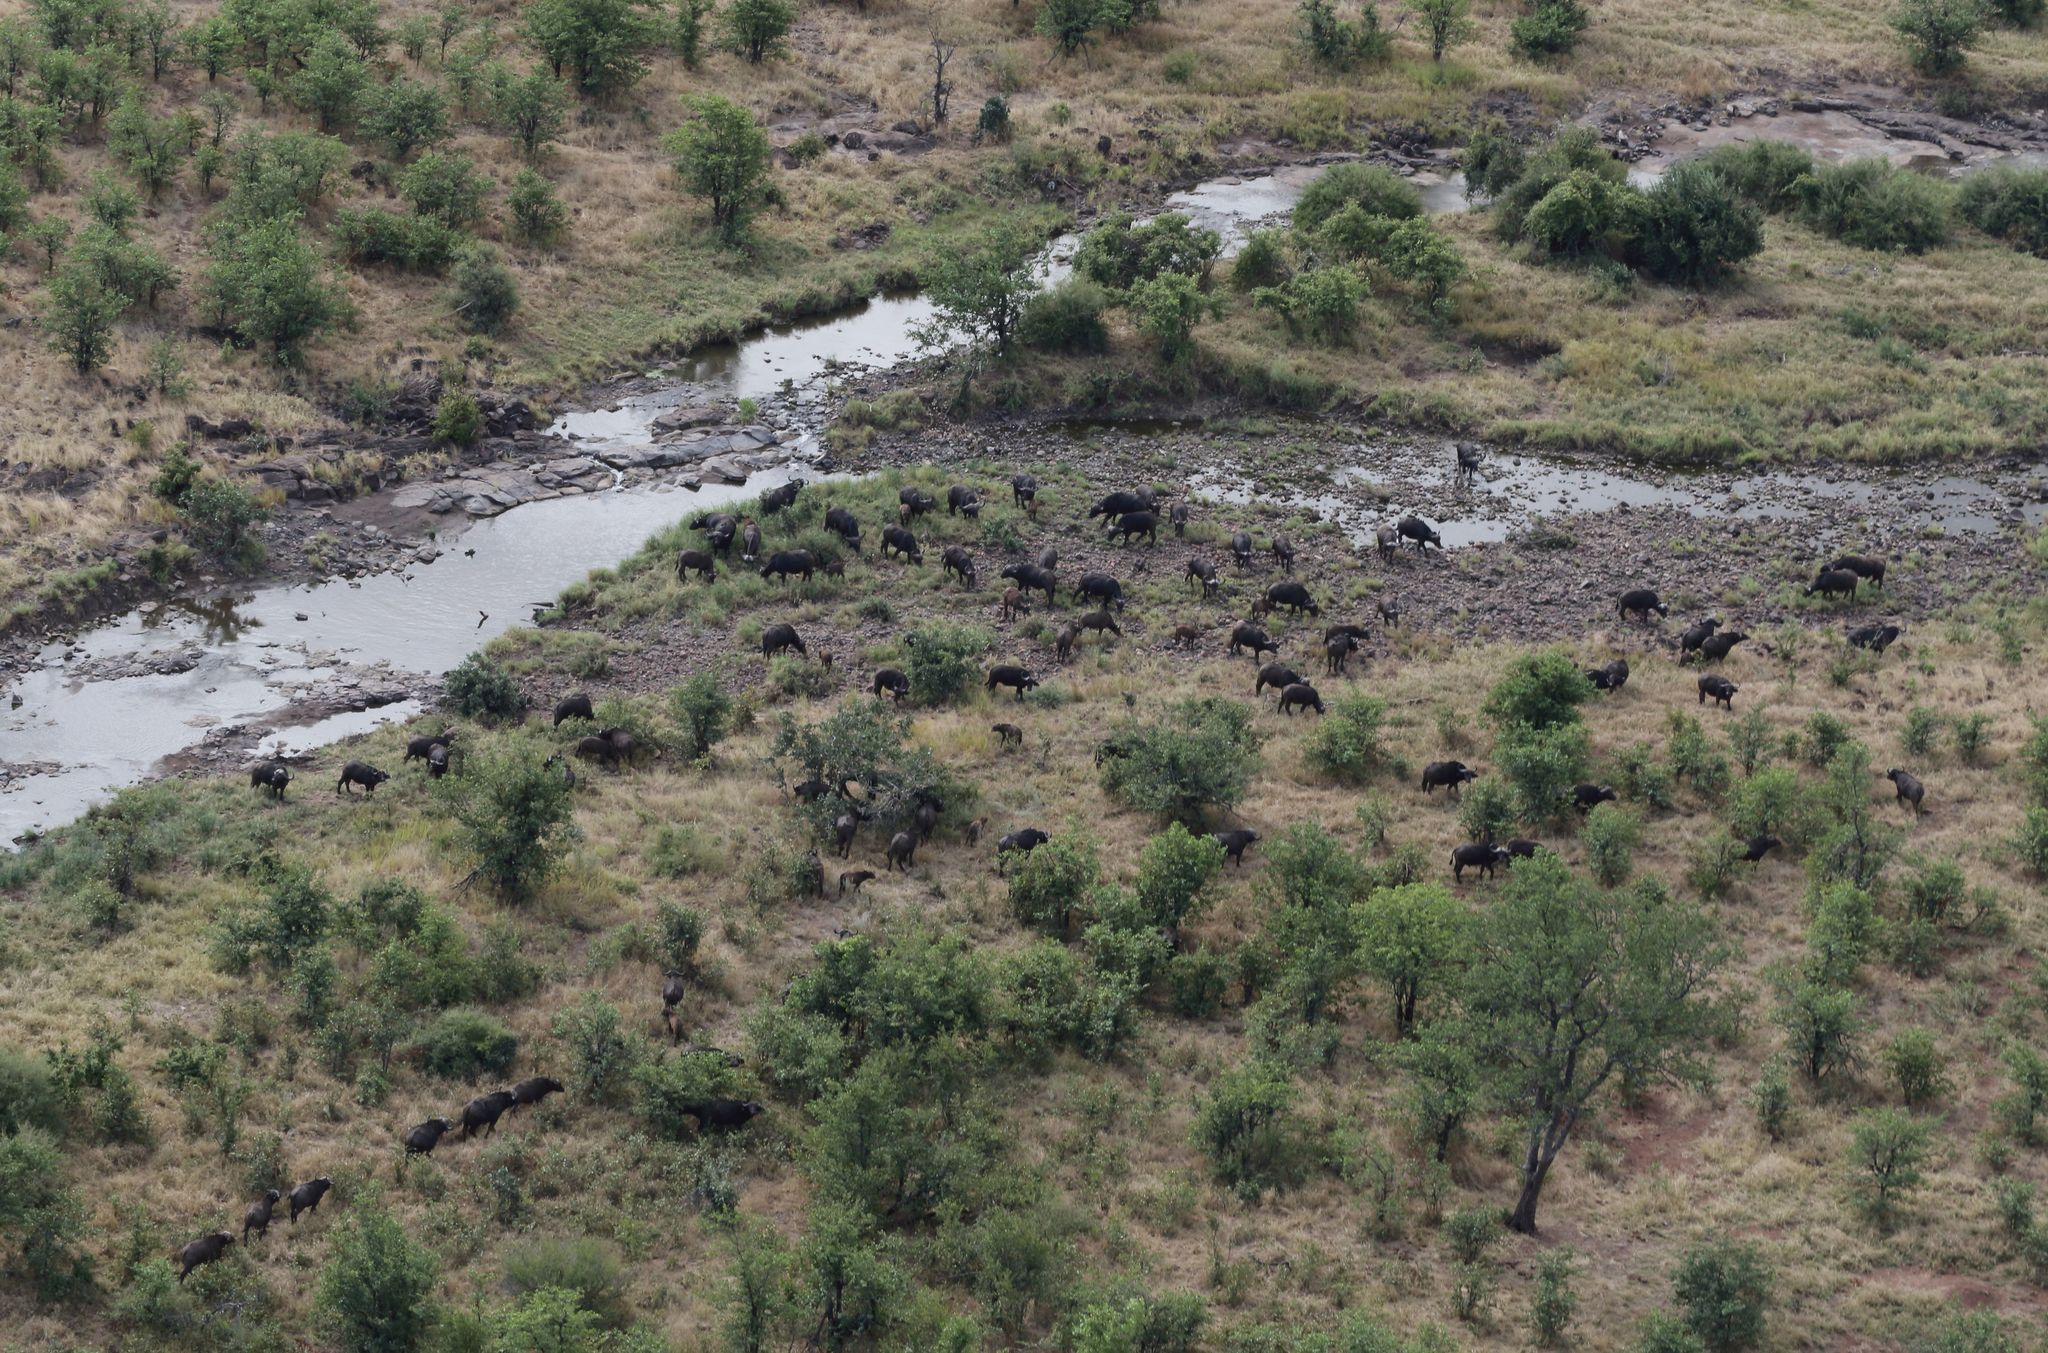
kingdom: Animalia
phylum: Chordata
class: Mammalia
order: Artiodactyla
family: Bovidae
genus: Syncerus
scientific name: Syncerus caffer
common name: African buffalo
